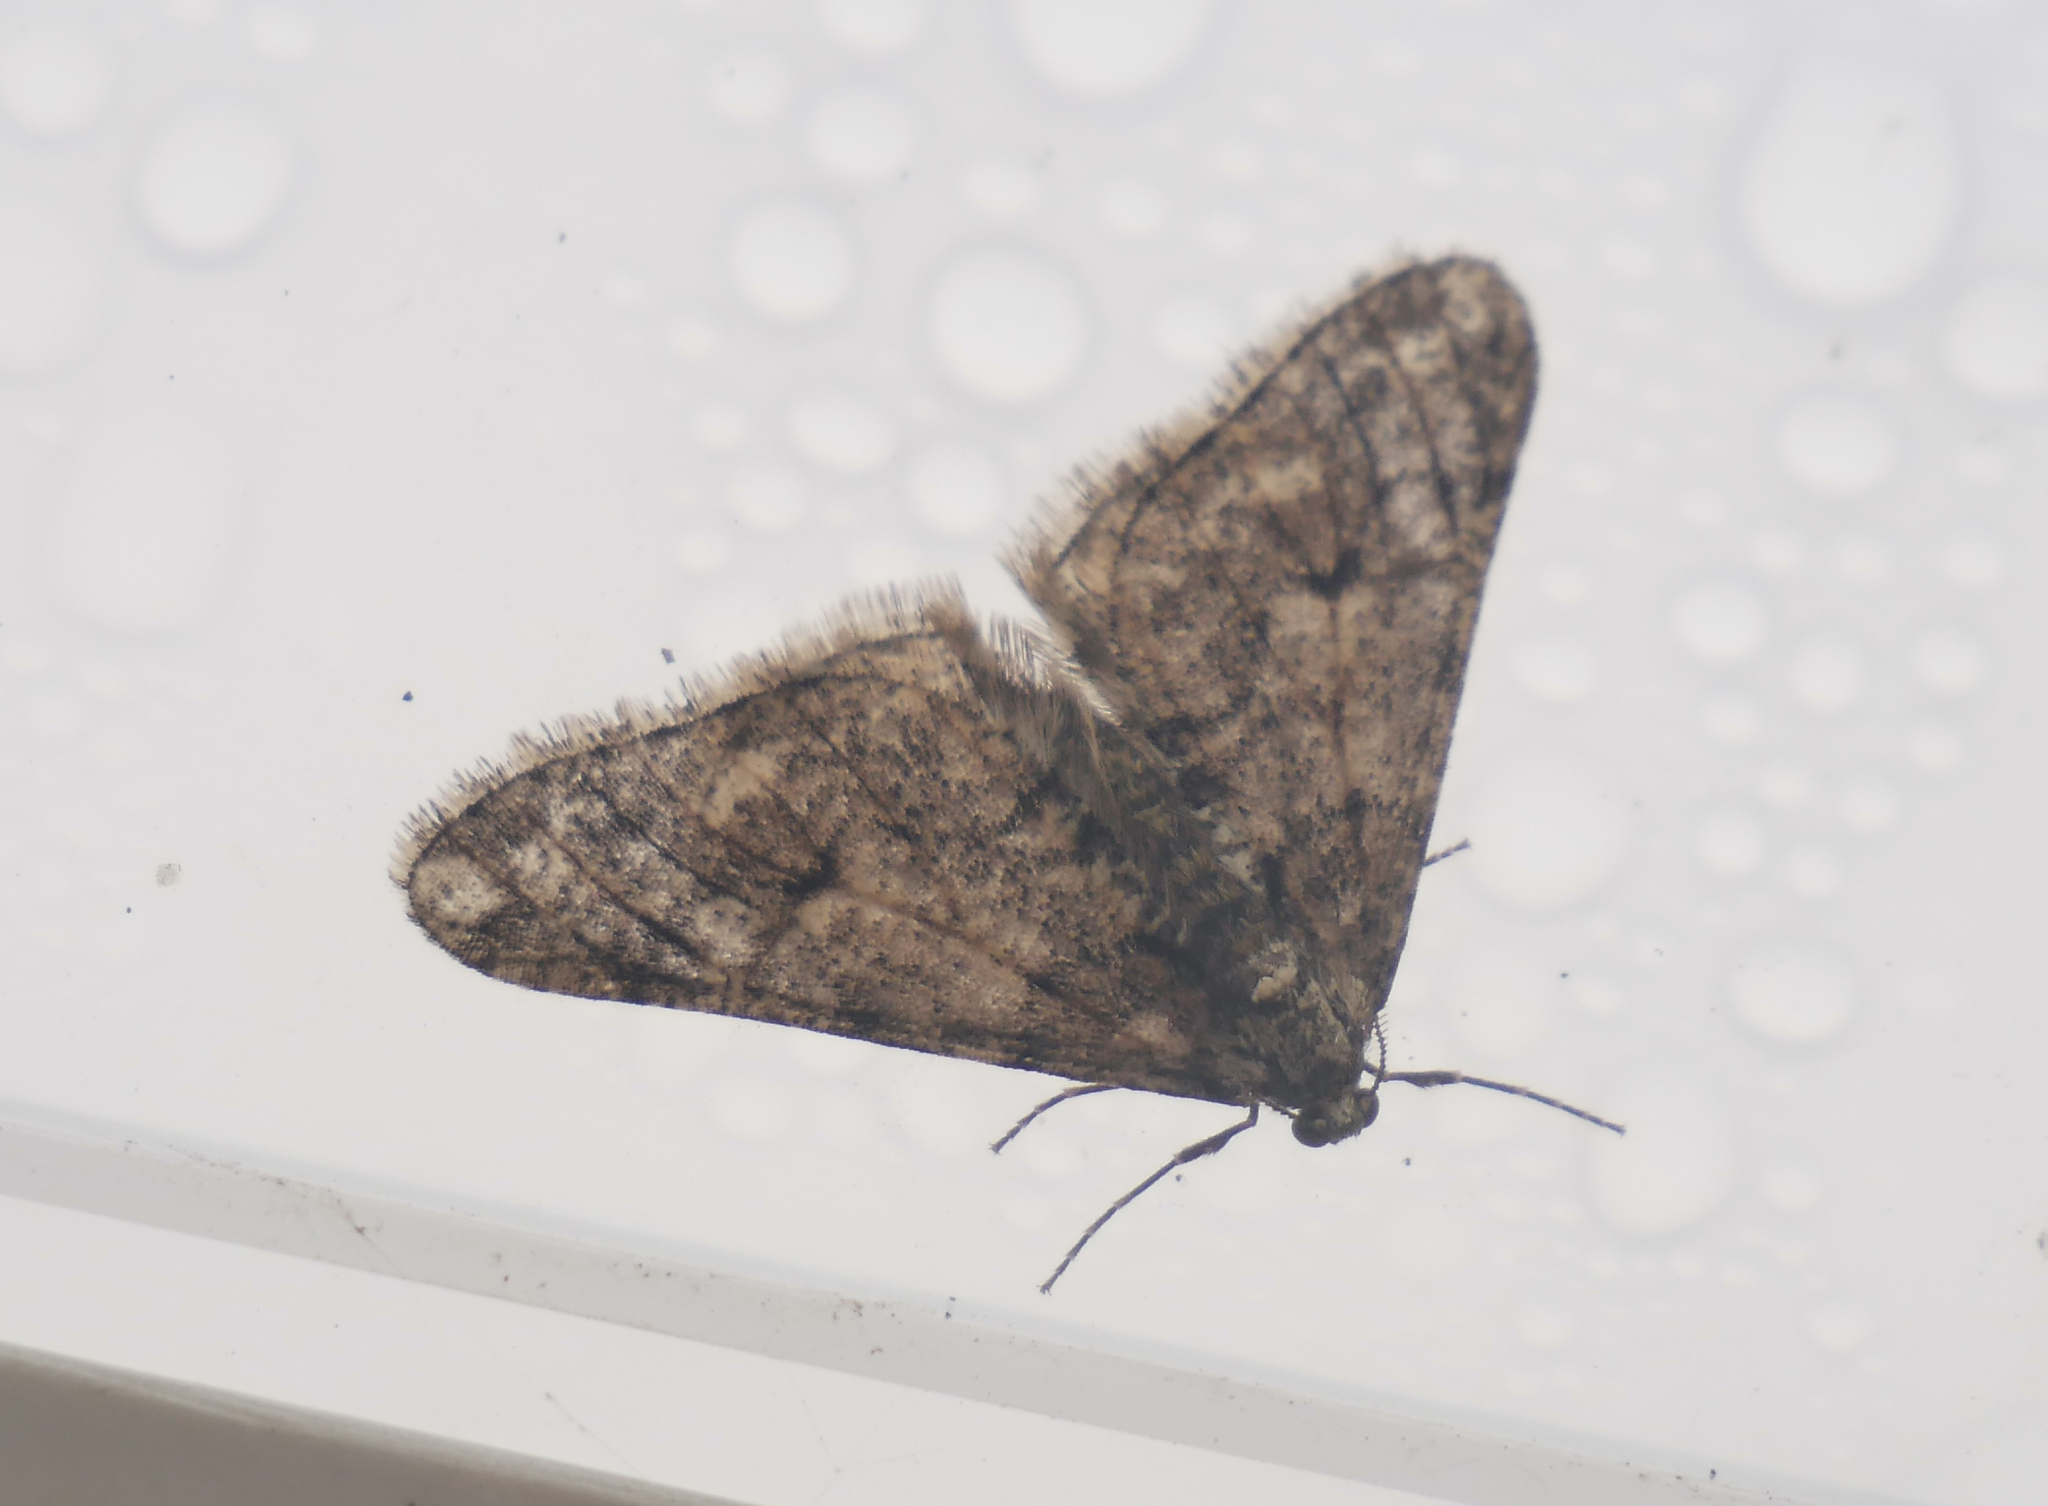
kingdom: Animalia
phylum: Arthropoda
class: Insecta
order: Lepidoptera
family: Geometridae
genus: Agriopis
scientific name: Agriopis leucophaearia
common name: Spring usher
